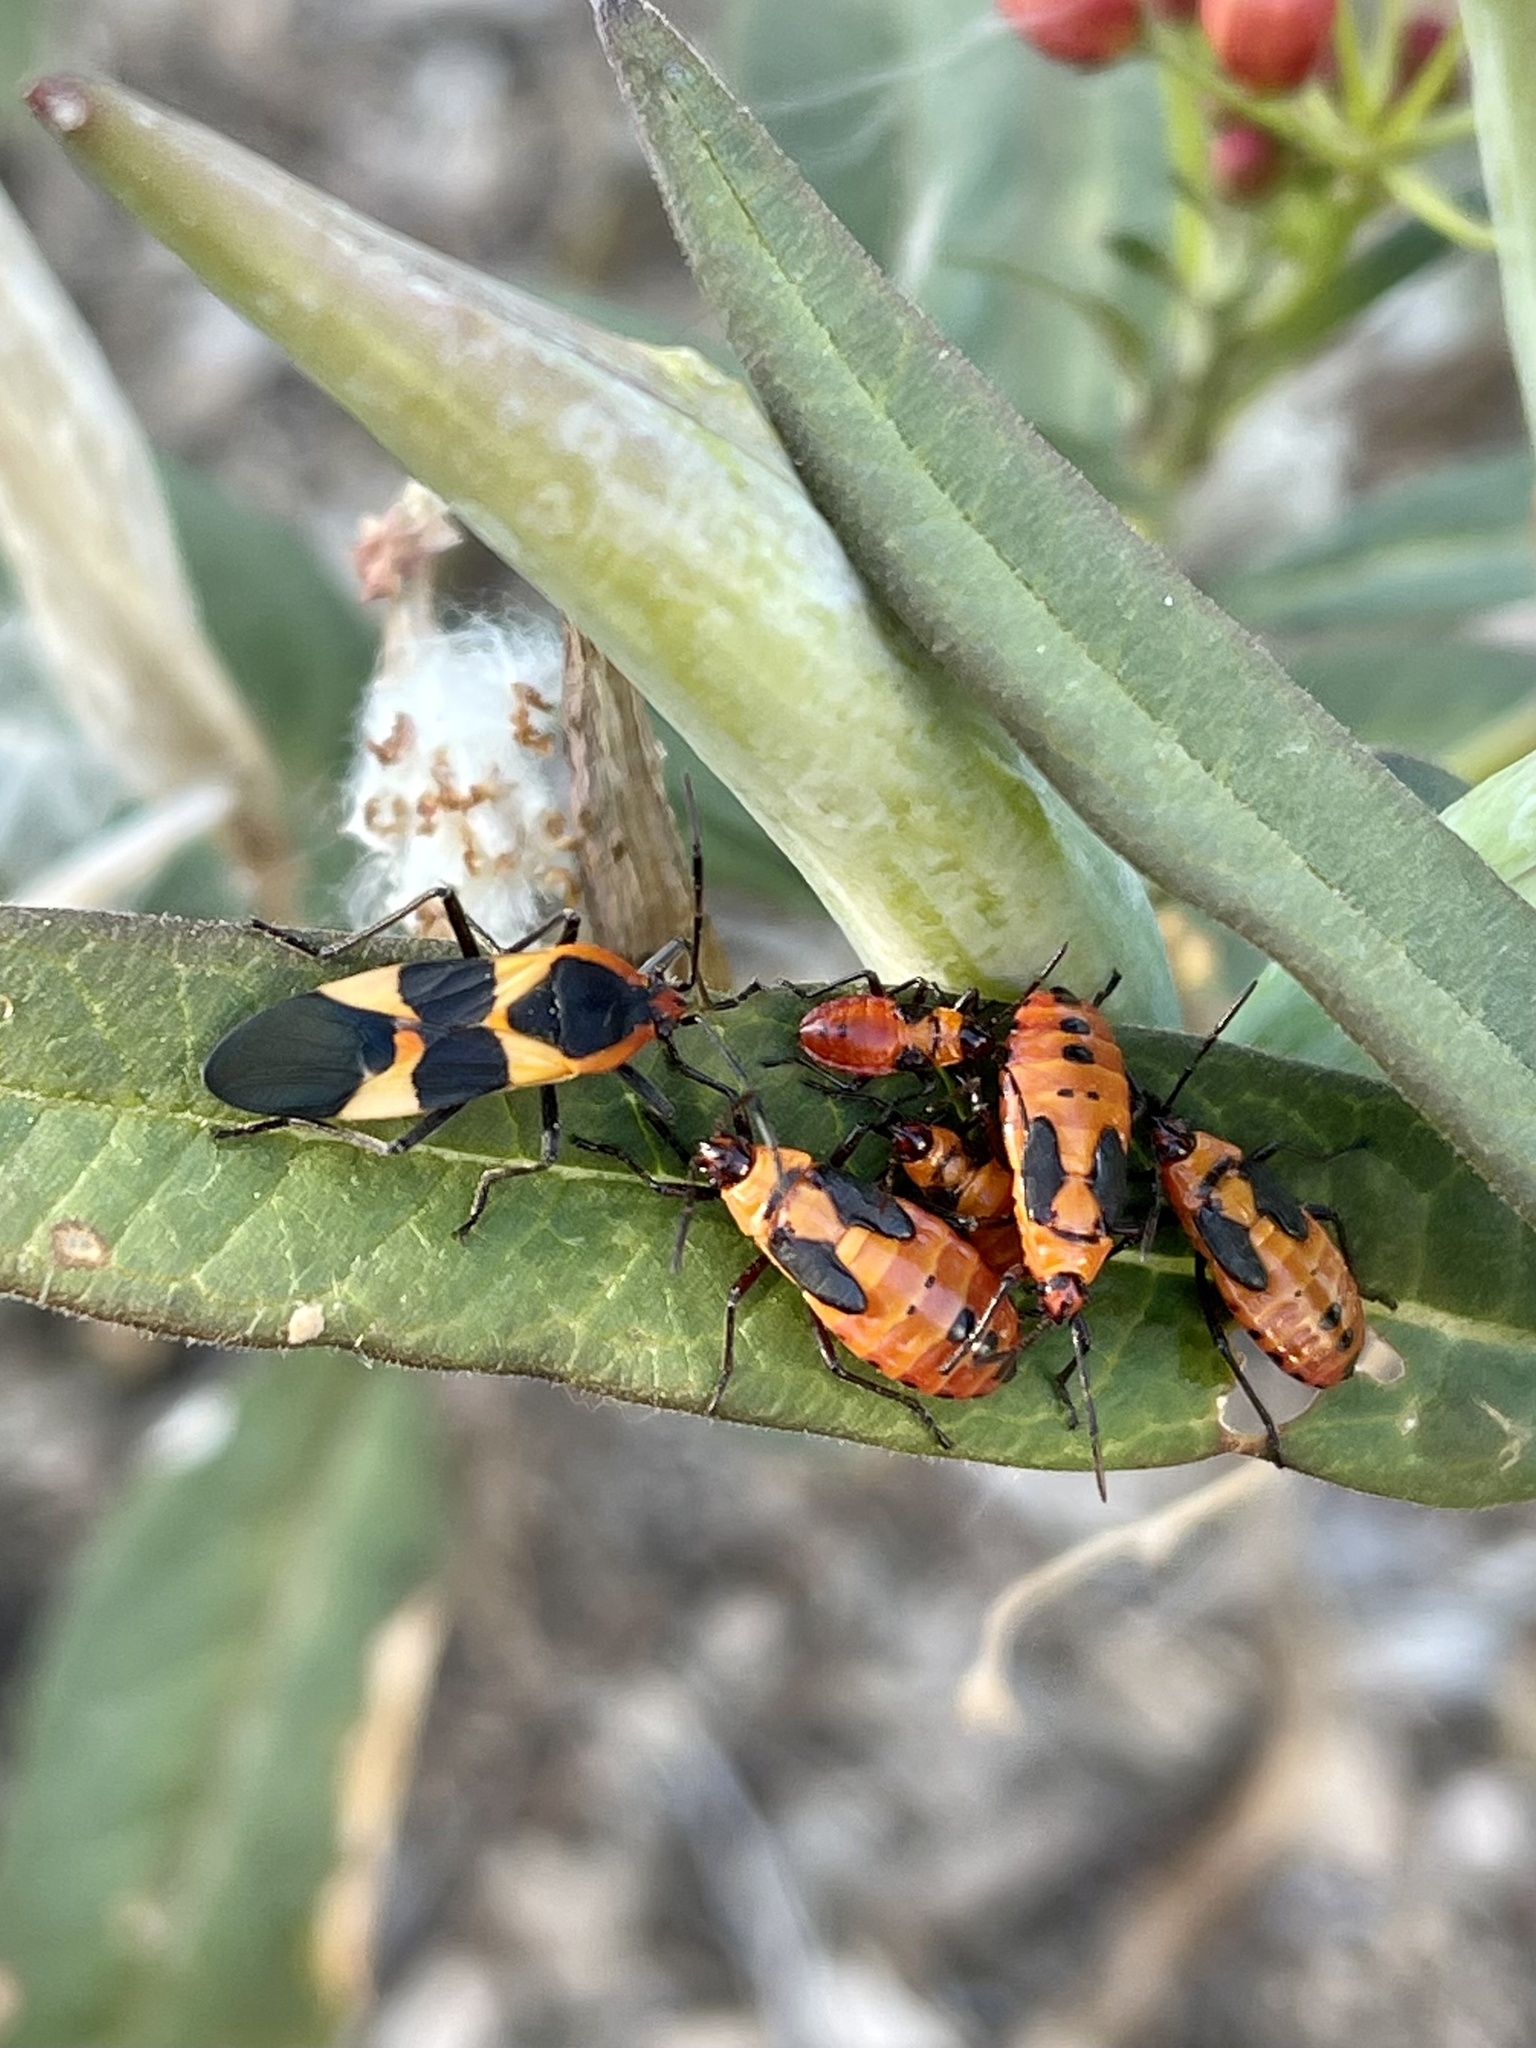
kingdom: Animalia
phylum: Arthropoda
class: Insecta
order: Hemiptera
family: Lygaeidae
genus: Oncopeltus
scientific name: Oncopeltus fasciatus
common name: Large milkweed bug
